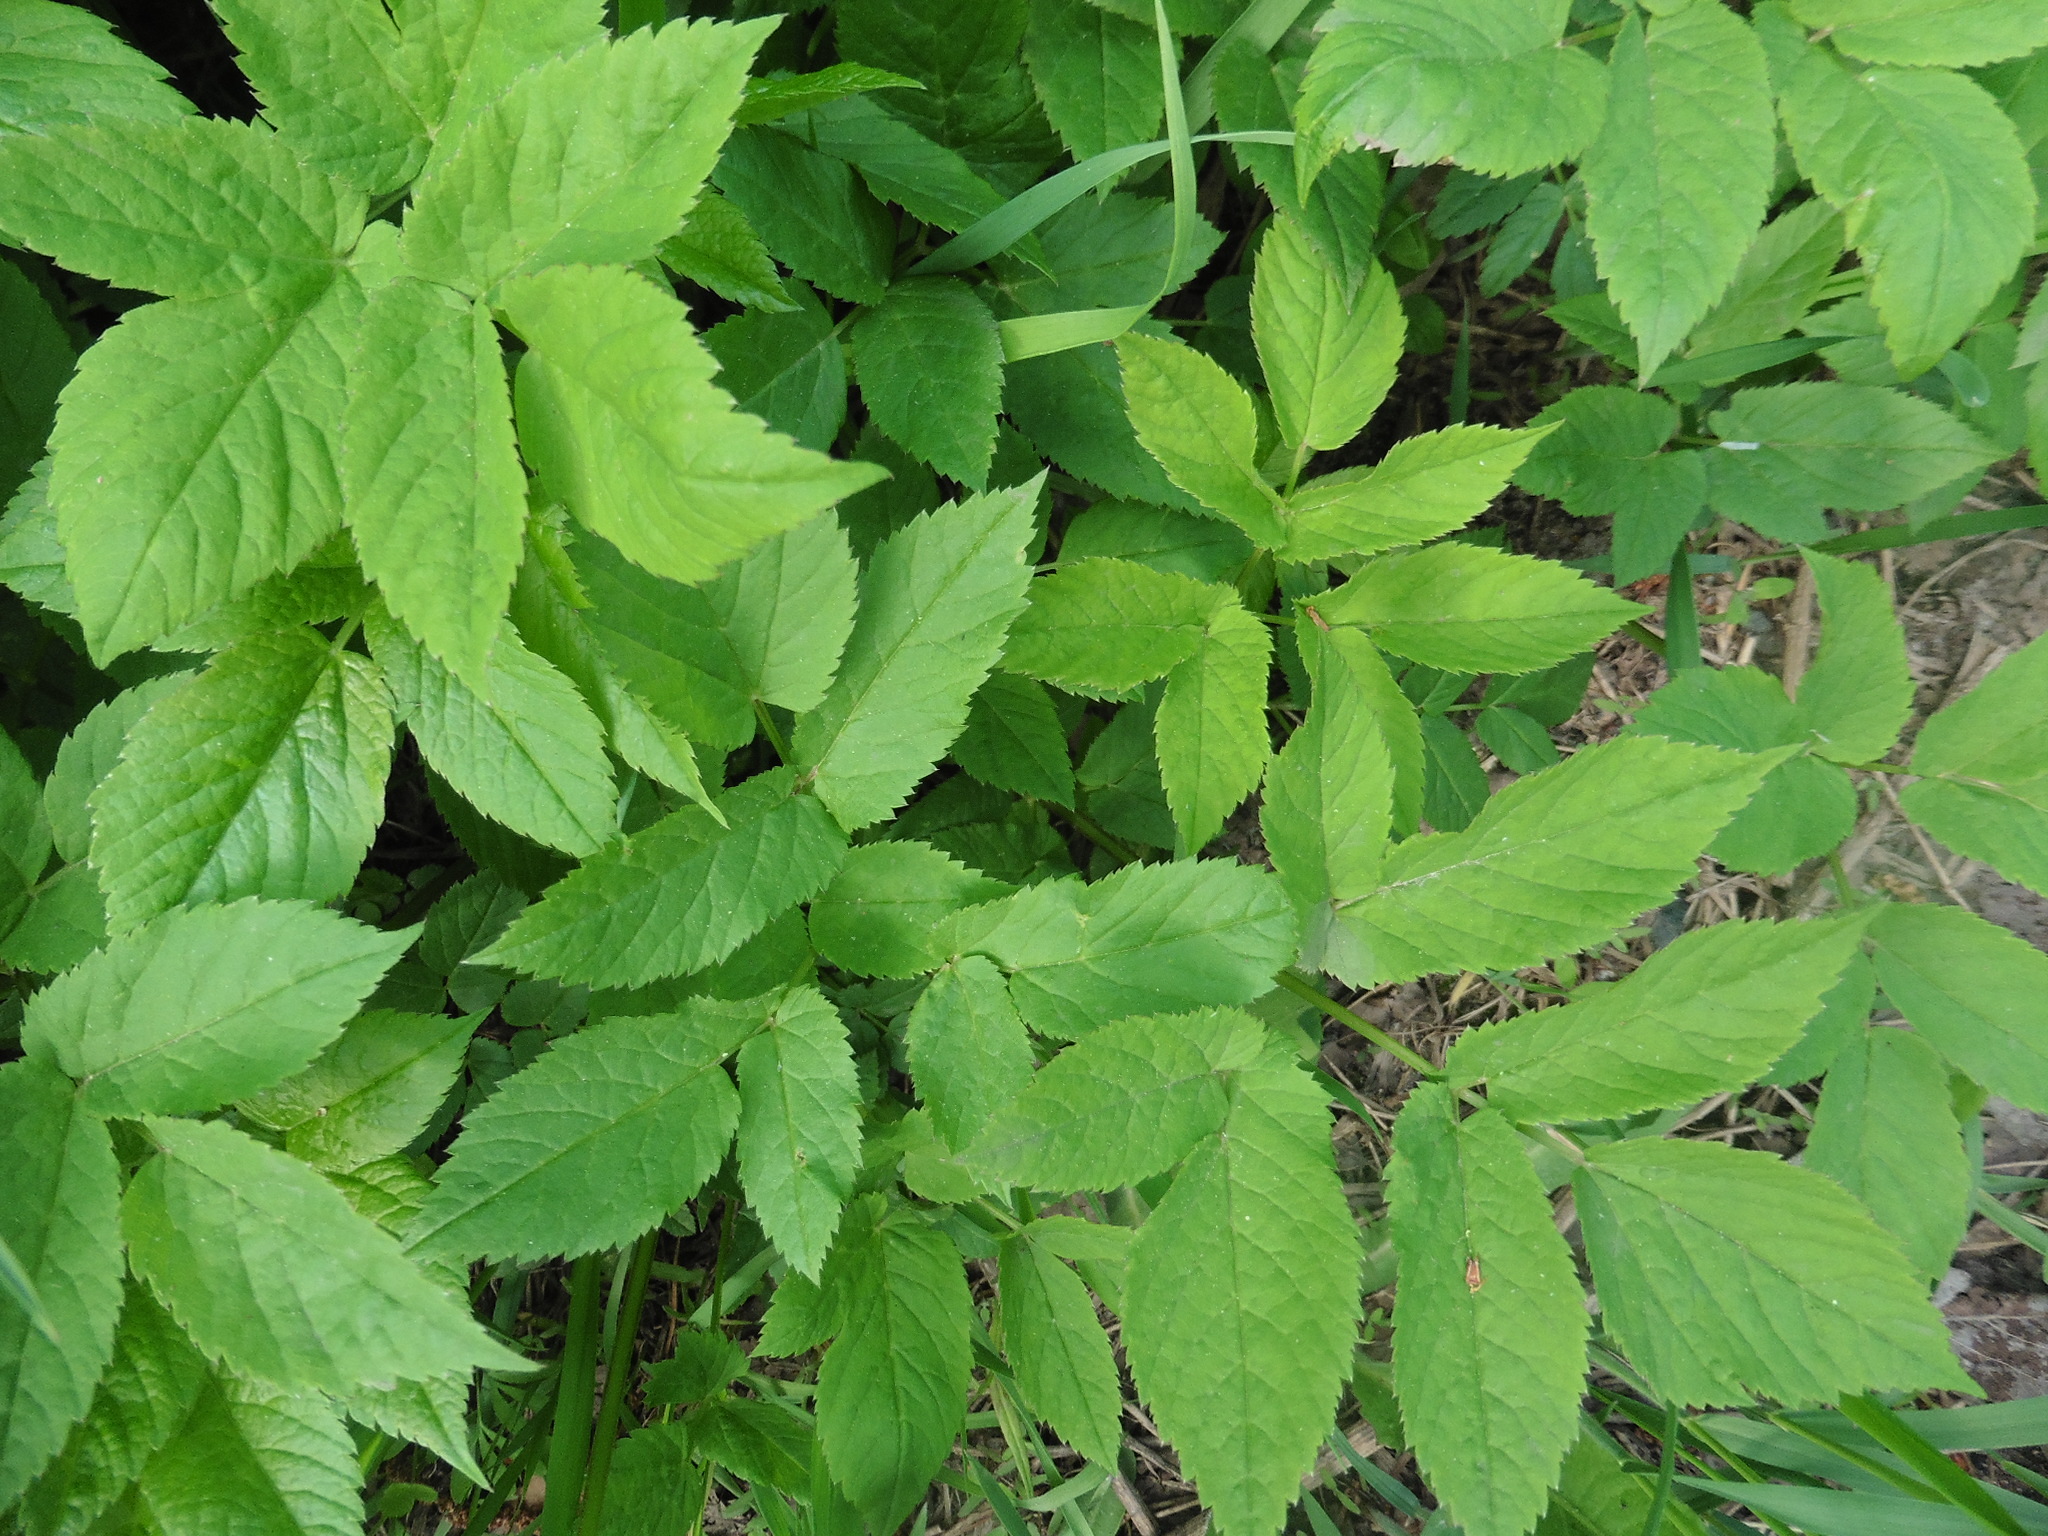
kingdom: Plantae
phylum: Tracheophyta
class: Magnoliopsida
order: Apiales
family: Apiaceae
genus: Aegopodium
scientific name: Aegopodium podagraria
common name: Ground-elder
